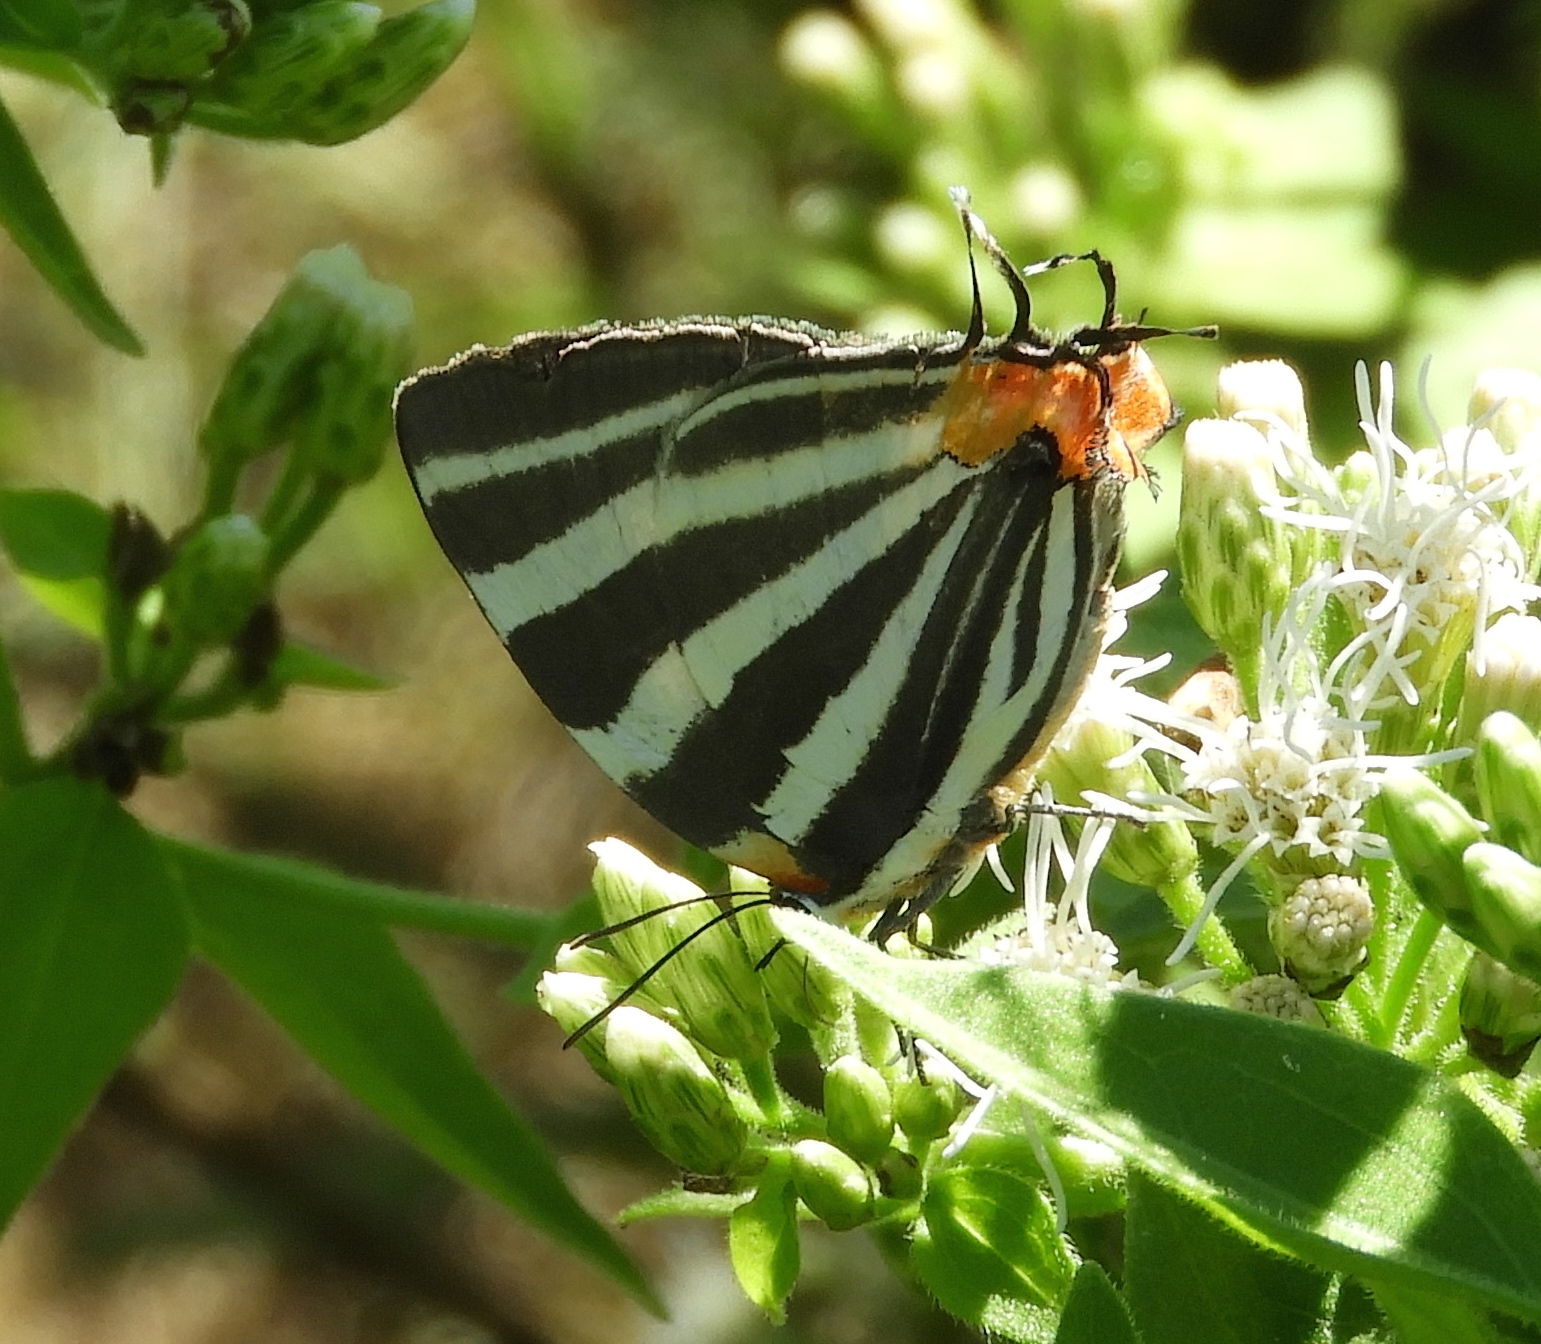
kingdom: Animalia
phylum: Arthropoda
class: Insecta
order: Lepidoptera
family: Lycaenidae
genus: Thecla
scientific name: Thecla bathildis
